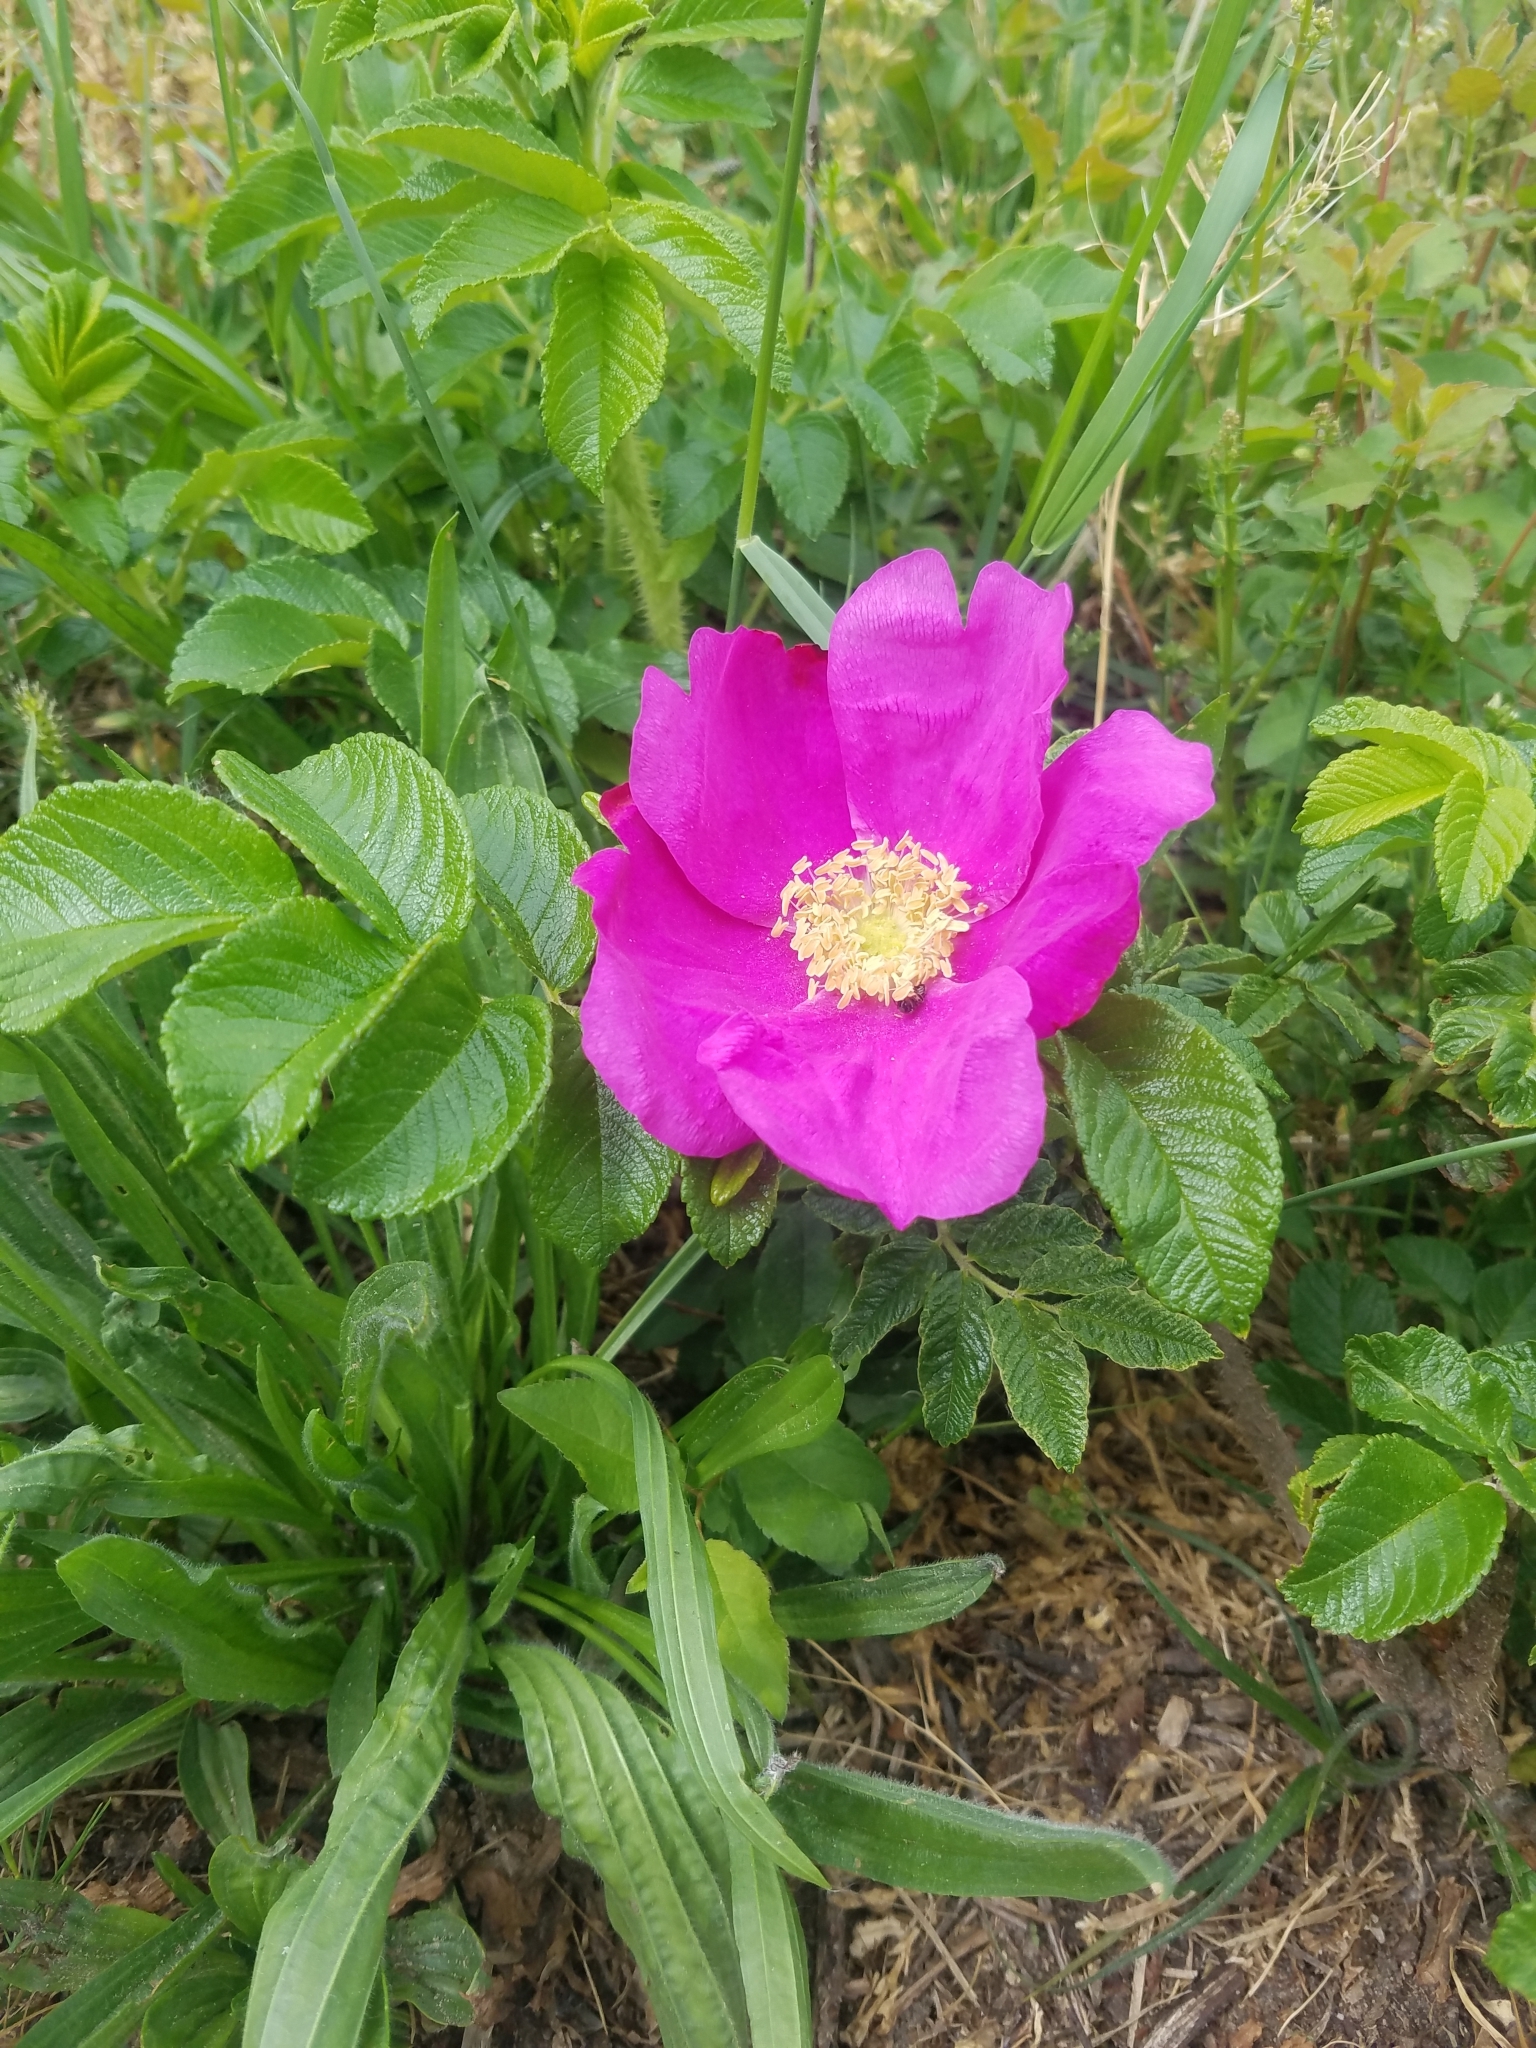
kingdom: Plantae
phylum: Tracheophyta
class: Magnoliopsida
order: Rosales
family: Rosaceae
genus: Rosa
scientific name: Rosa rugosa
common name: Japanese rose
